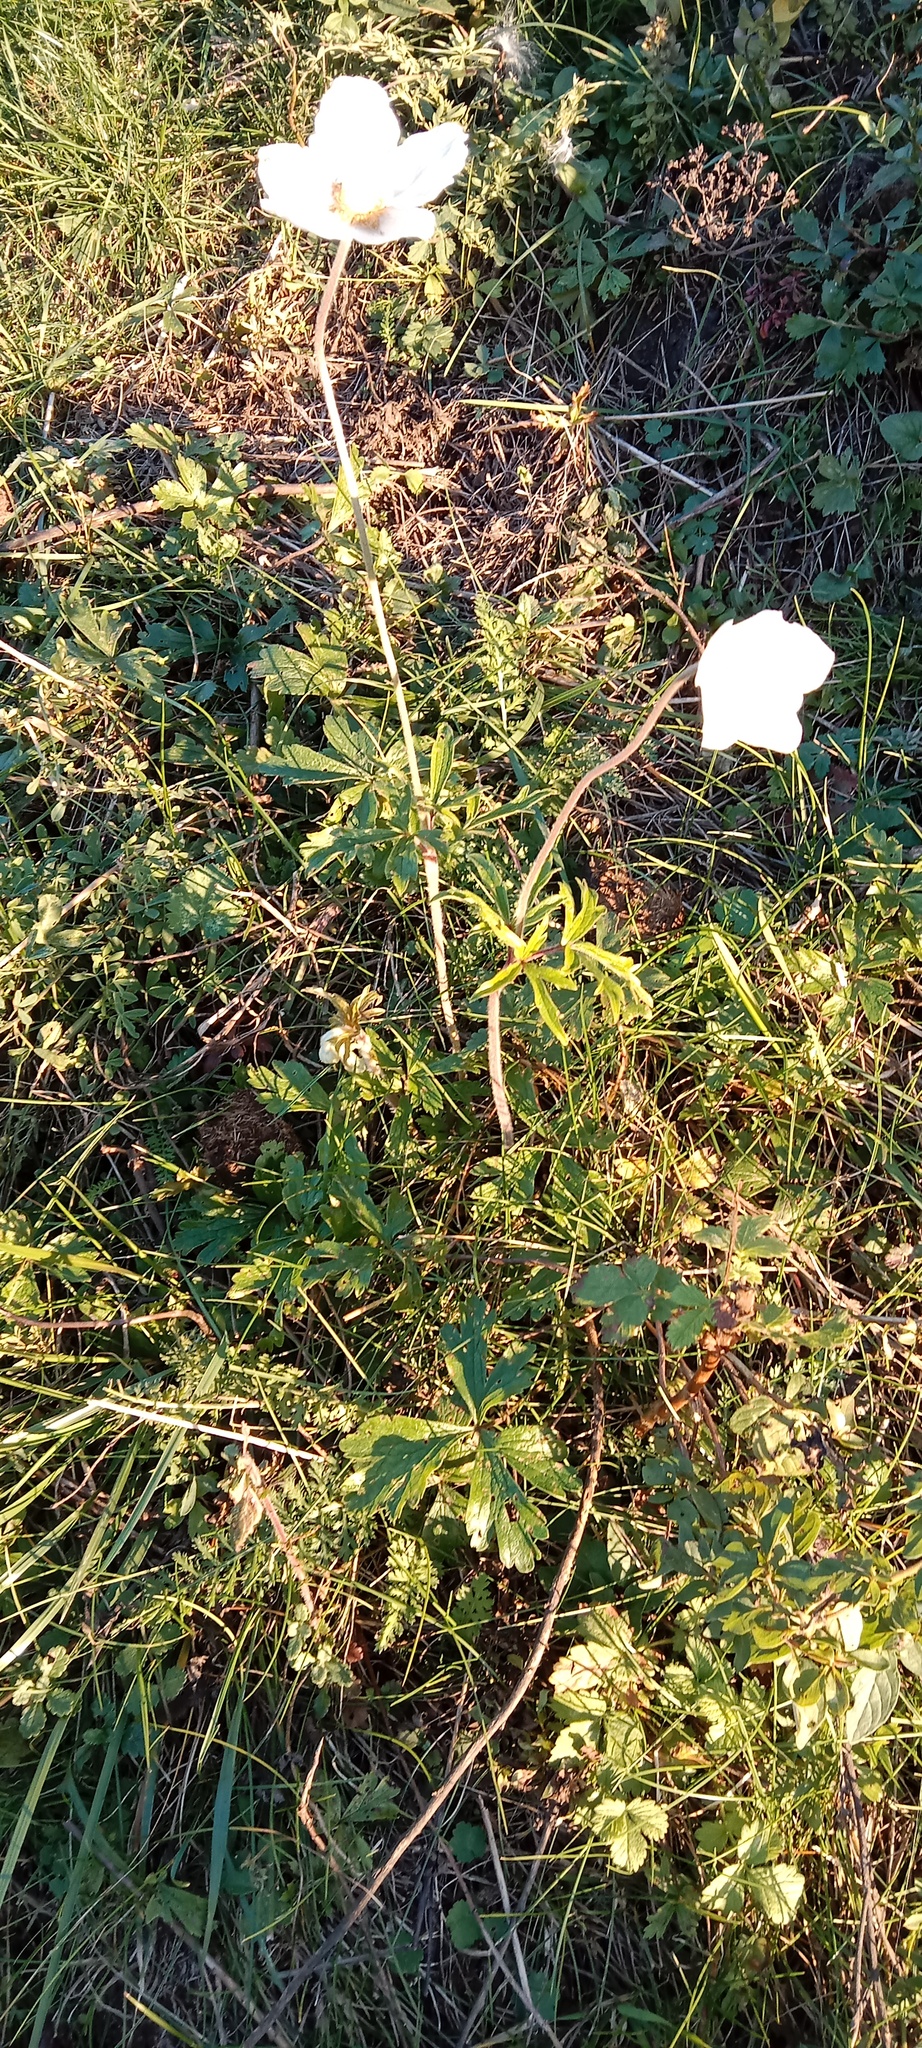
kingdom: Plantae
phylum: Tracheophyta
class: Magnoliopsida
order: Ranunculales
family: Ranunculaceae
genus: Anemone
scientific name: Anemone sylvestris
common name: Snowdrop anemone
